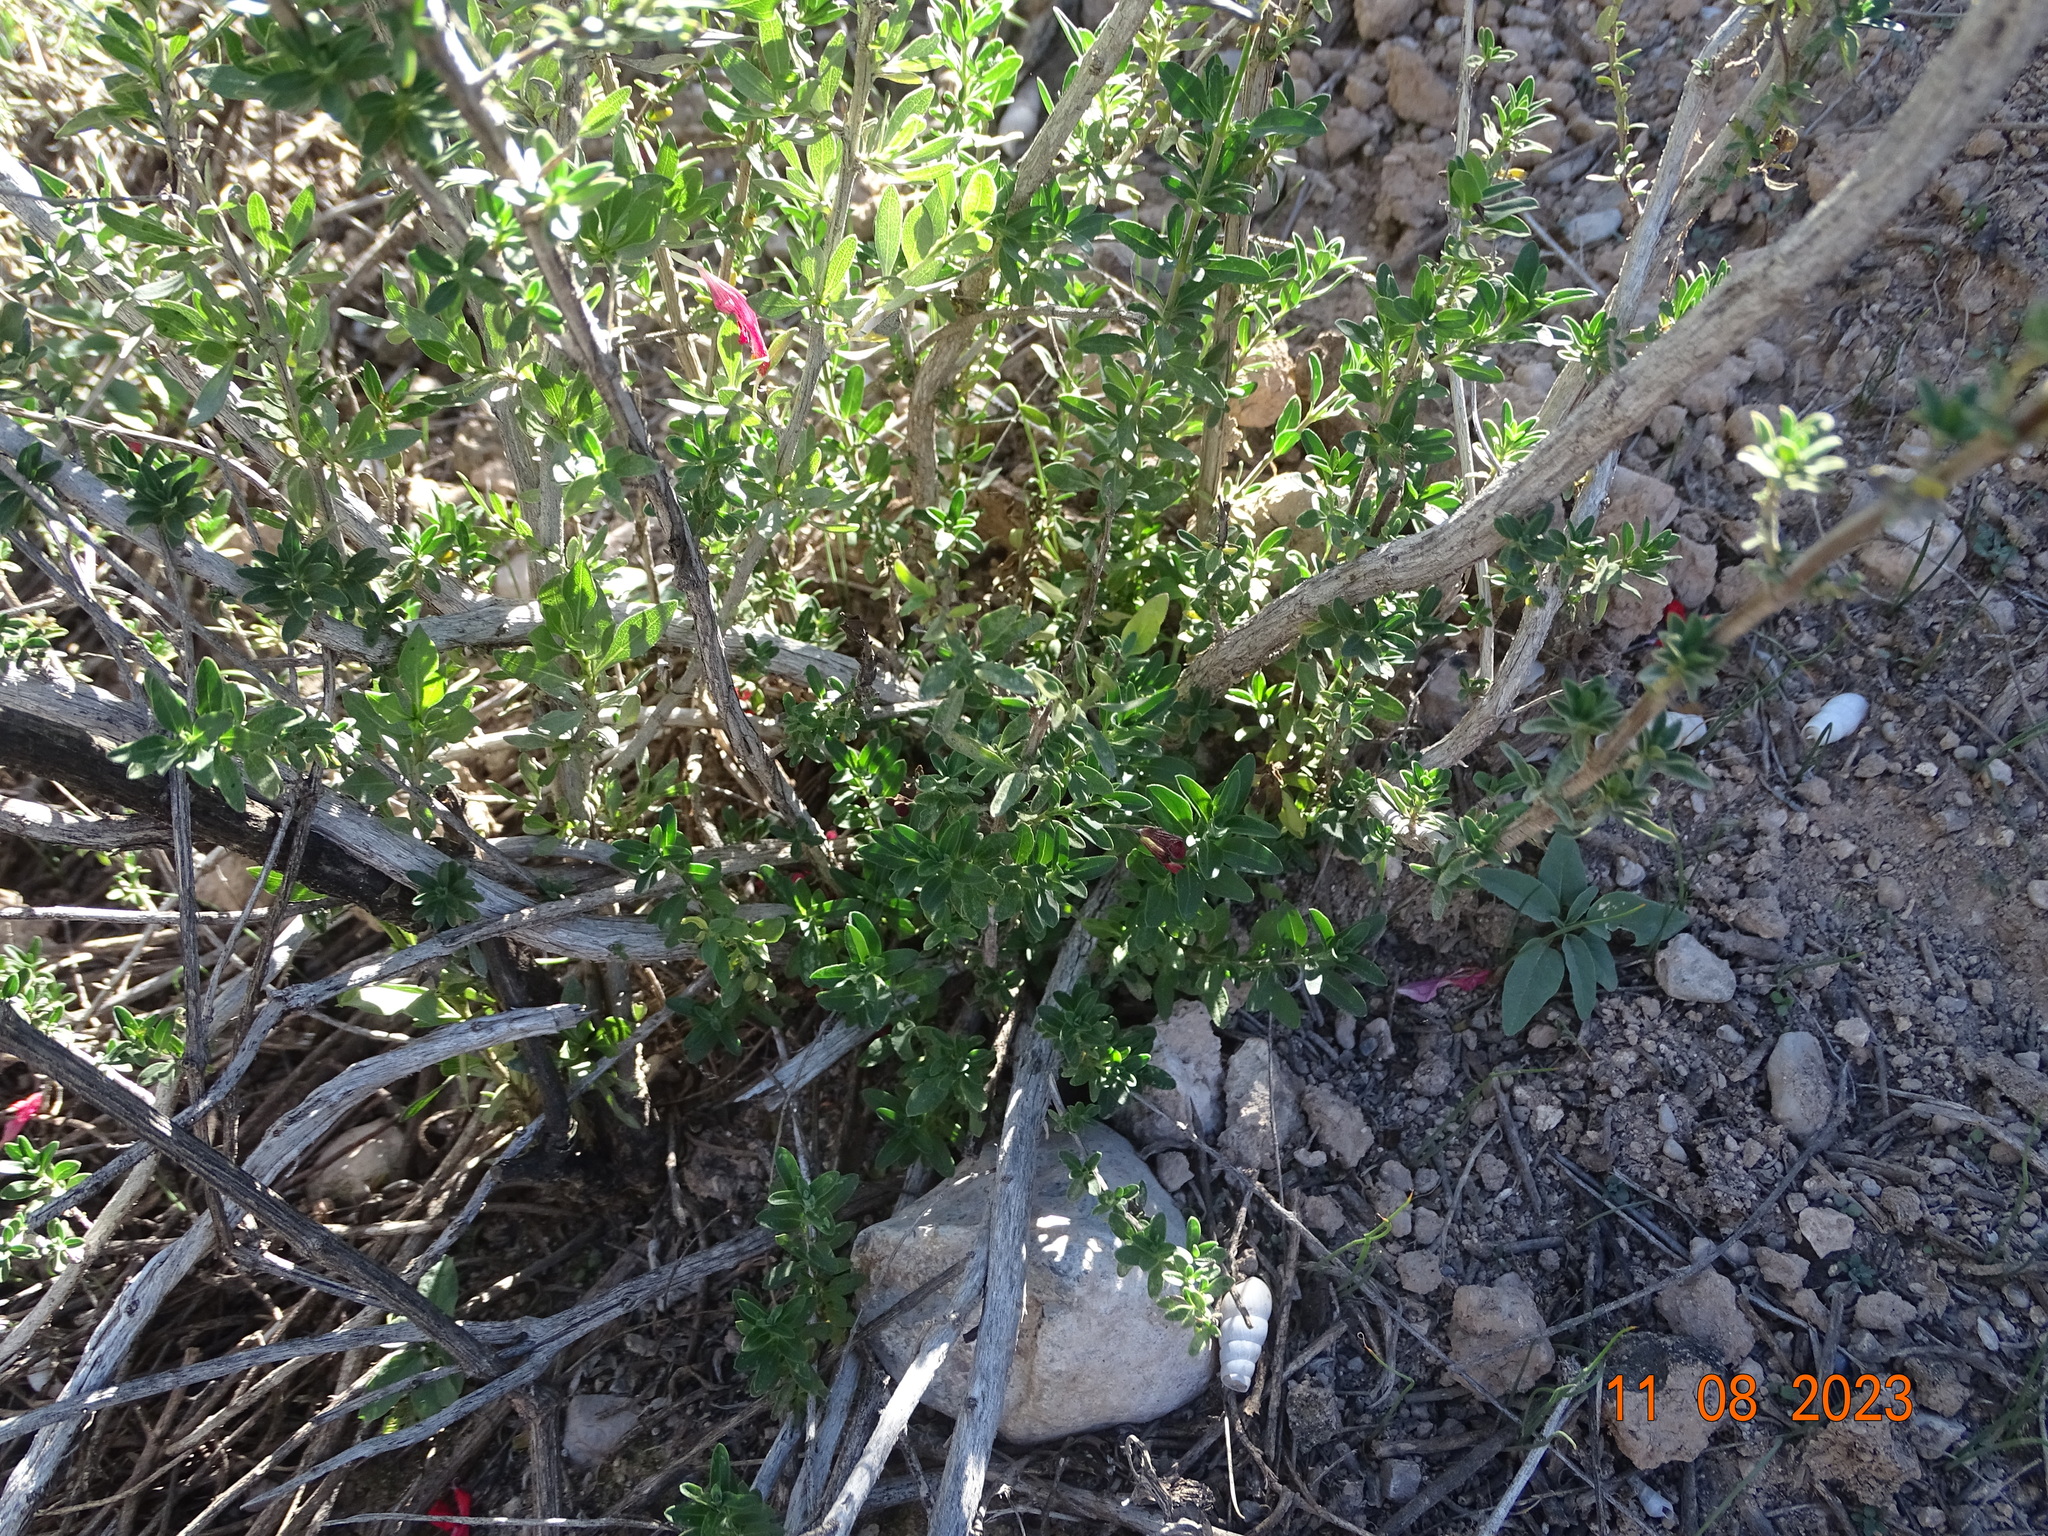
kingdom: Plantae
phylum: Tracheophyta
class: Magnoliopsida
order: Lamiales
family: Lamiaceae
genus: Salvia
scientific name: Salvia greggii
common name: Autumn sage
